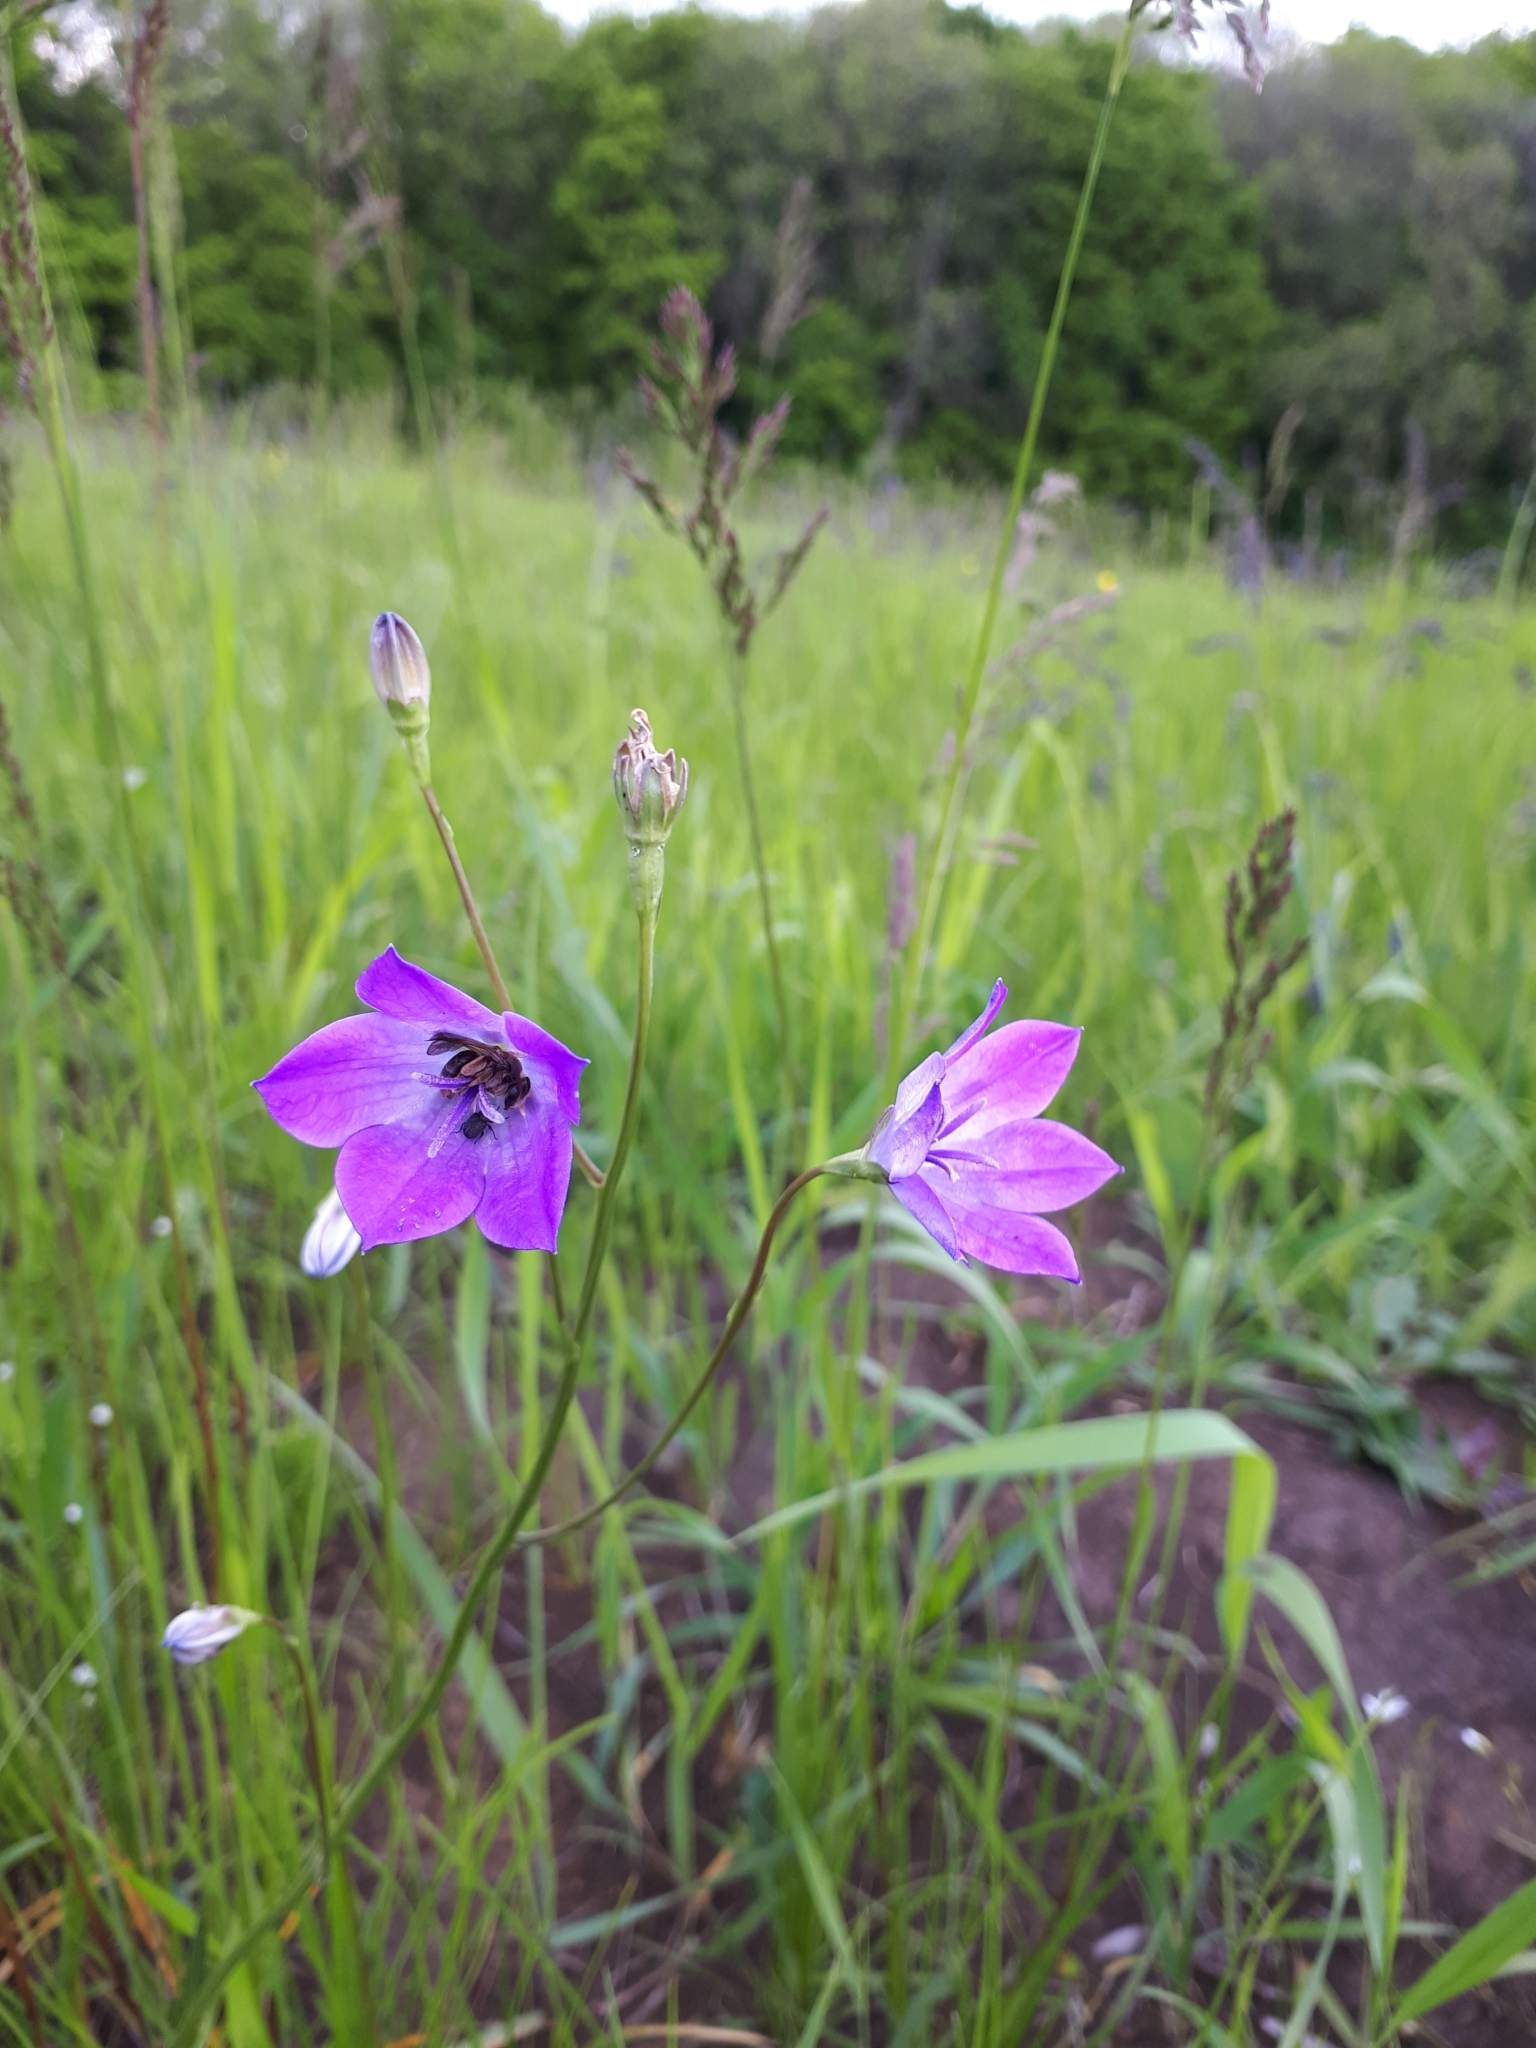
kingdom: Plantae
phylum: Tracheophyta
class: Magnoliopsida
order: Asterales
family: Campanulaceae
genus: Campanula
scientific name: Campanula stevenii
